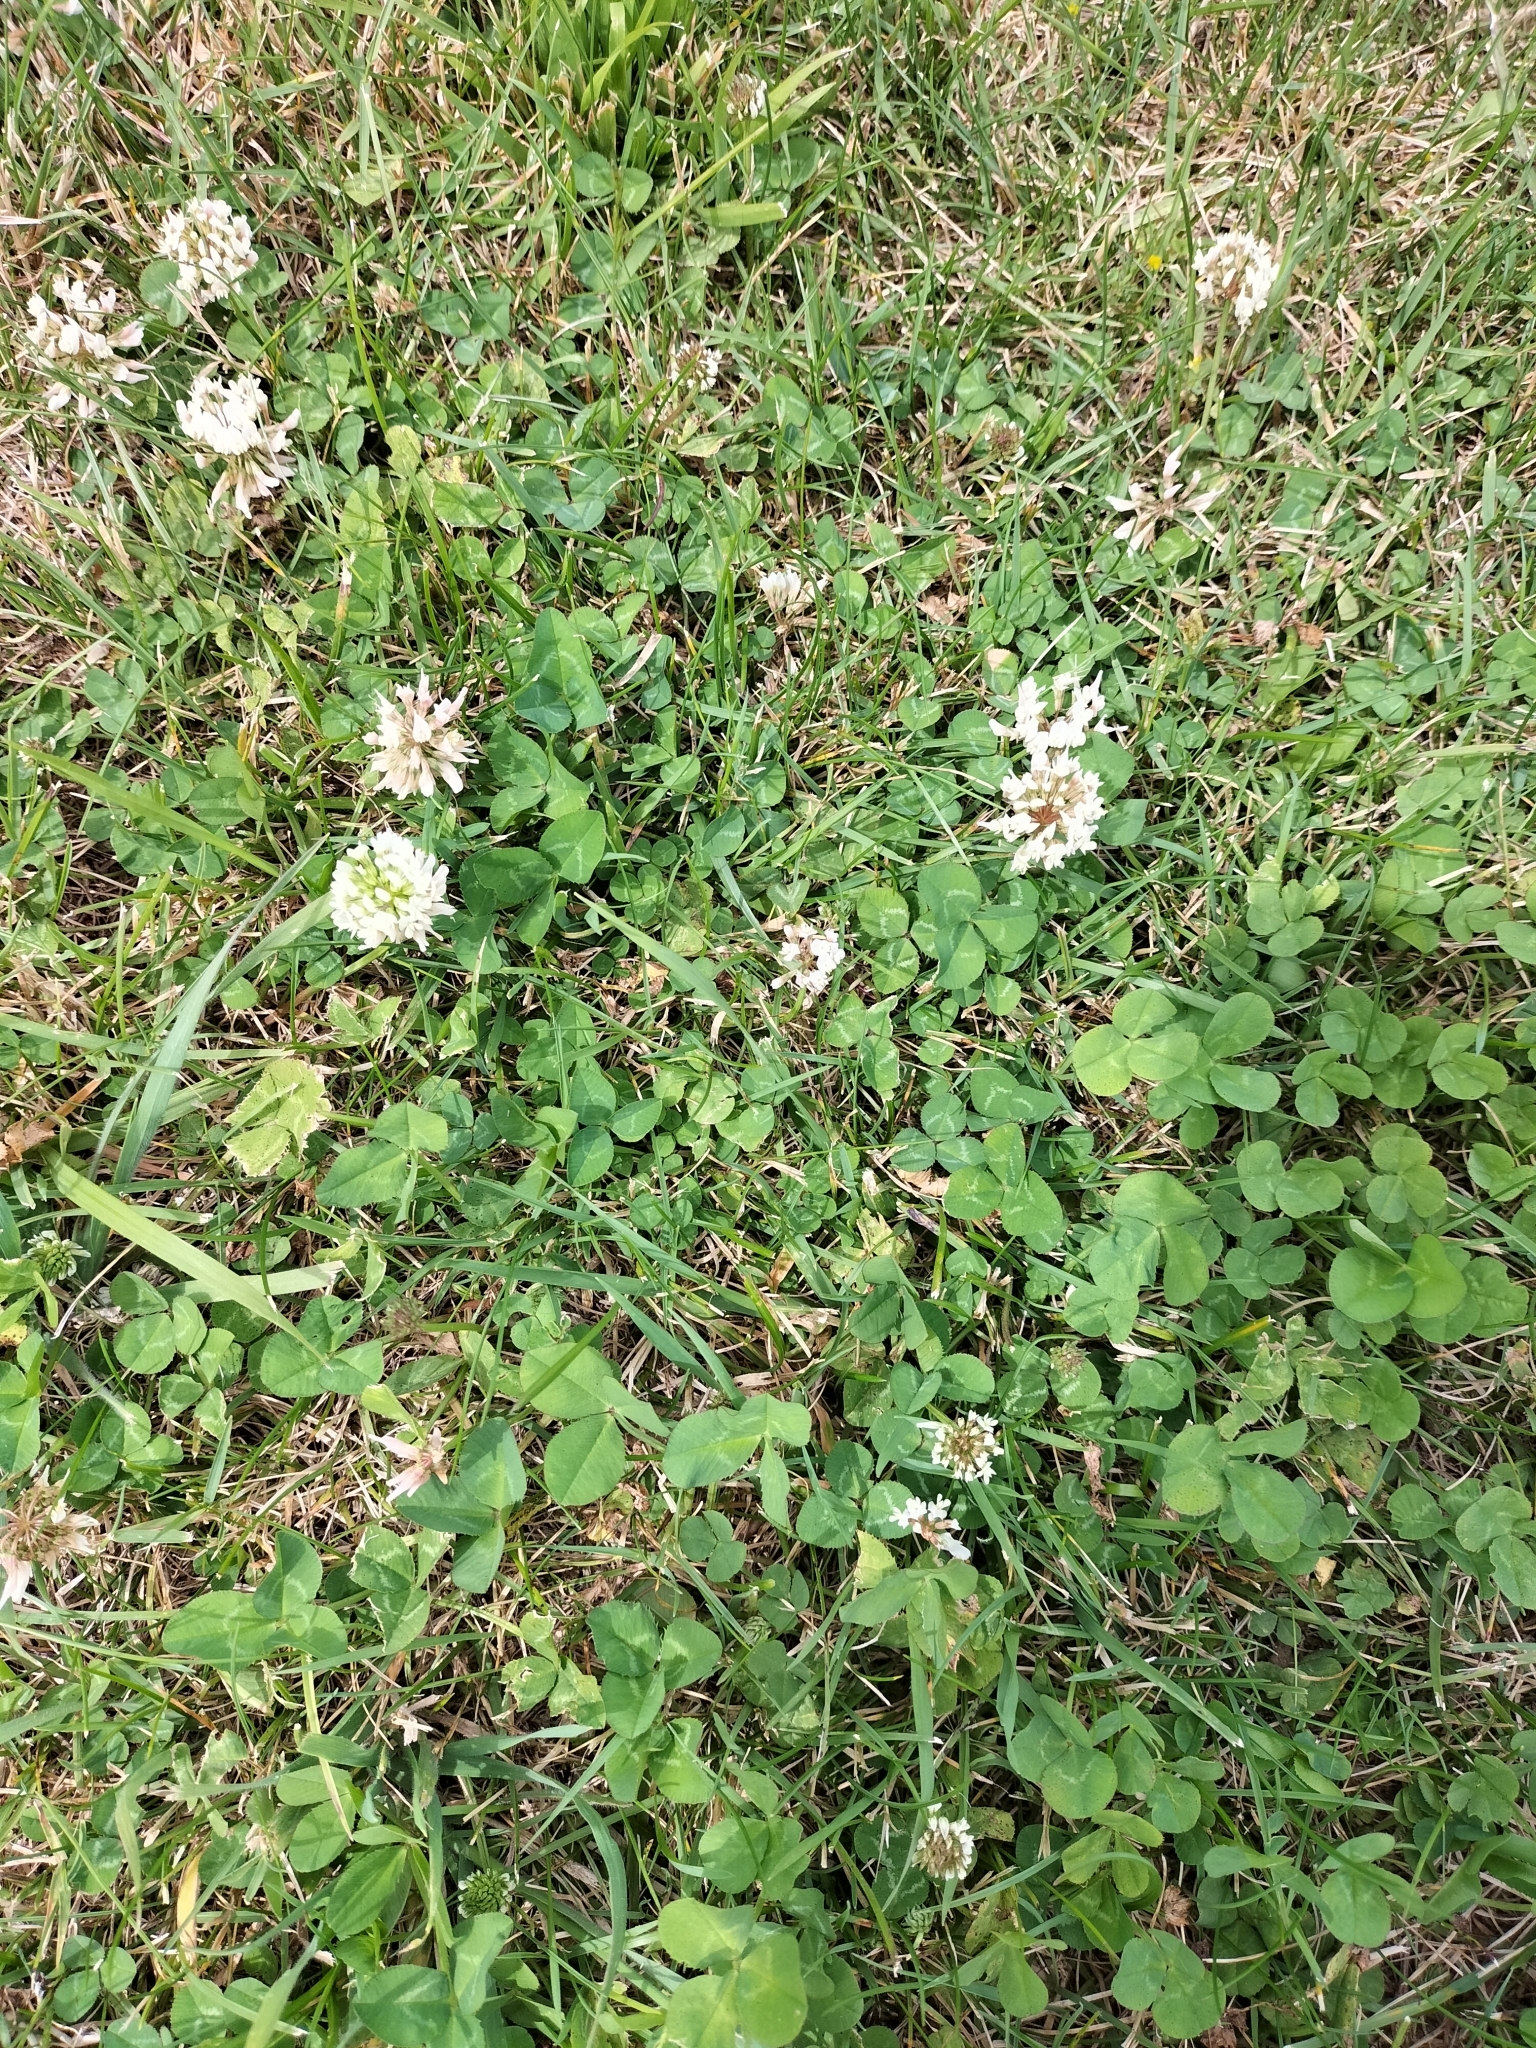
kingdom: Plantae
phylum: Tracheophyta
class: Magnoliopsida
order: Fabales
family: Fabaceae
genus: Trifolium
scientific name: Trifolium repens
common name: White clover
